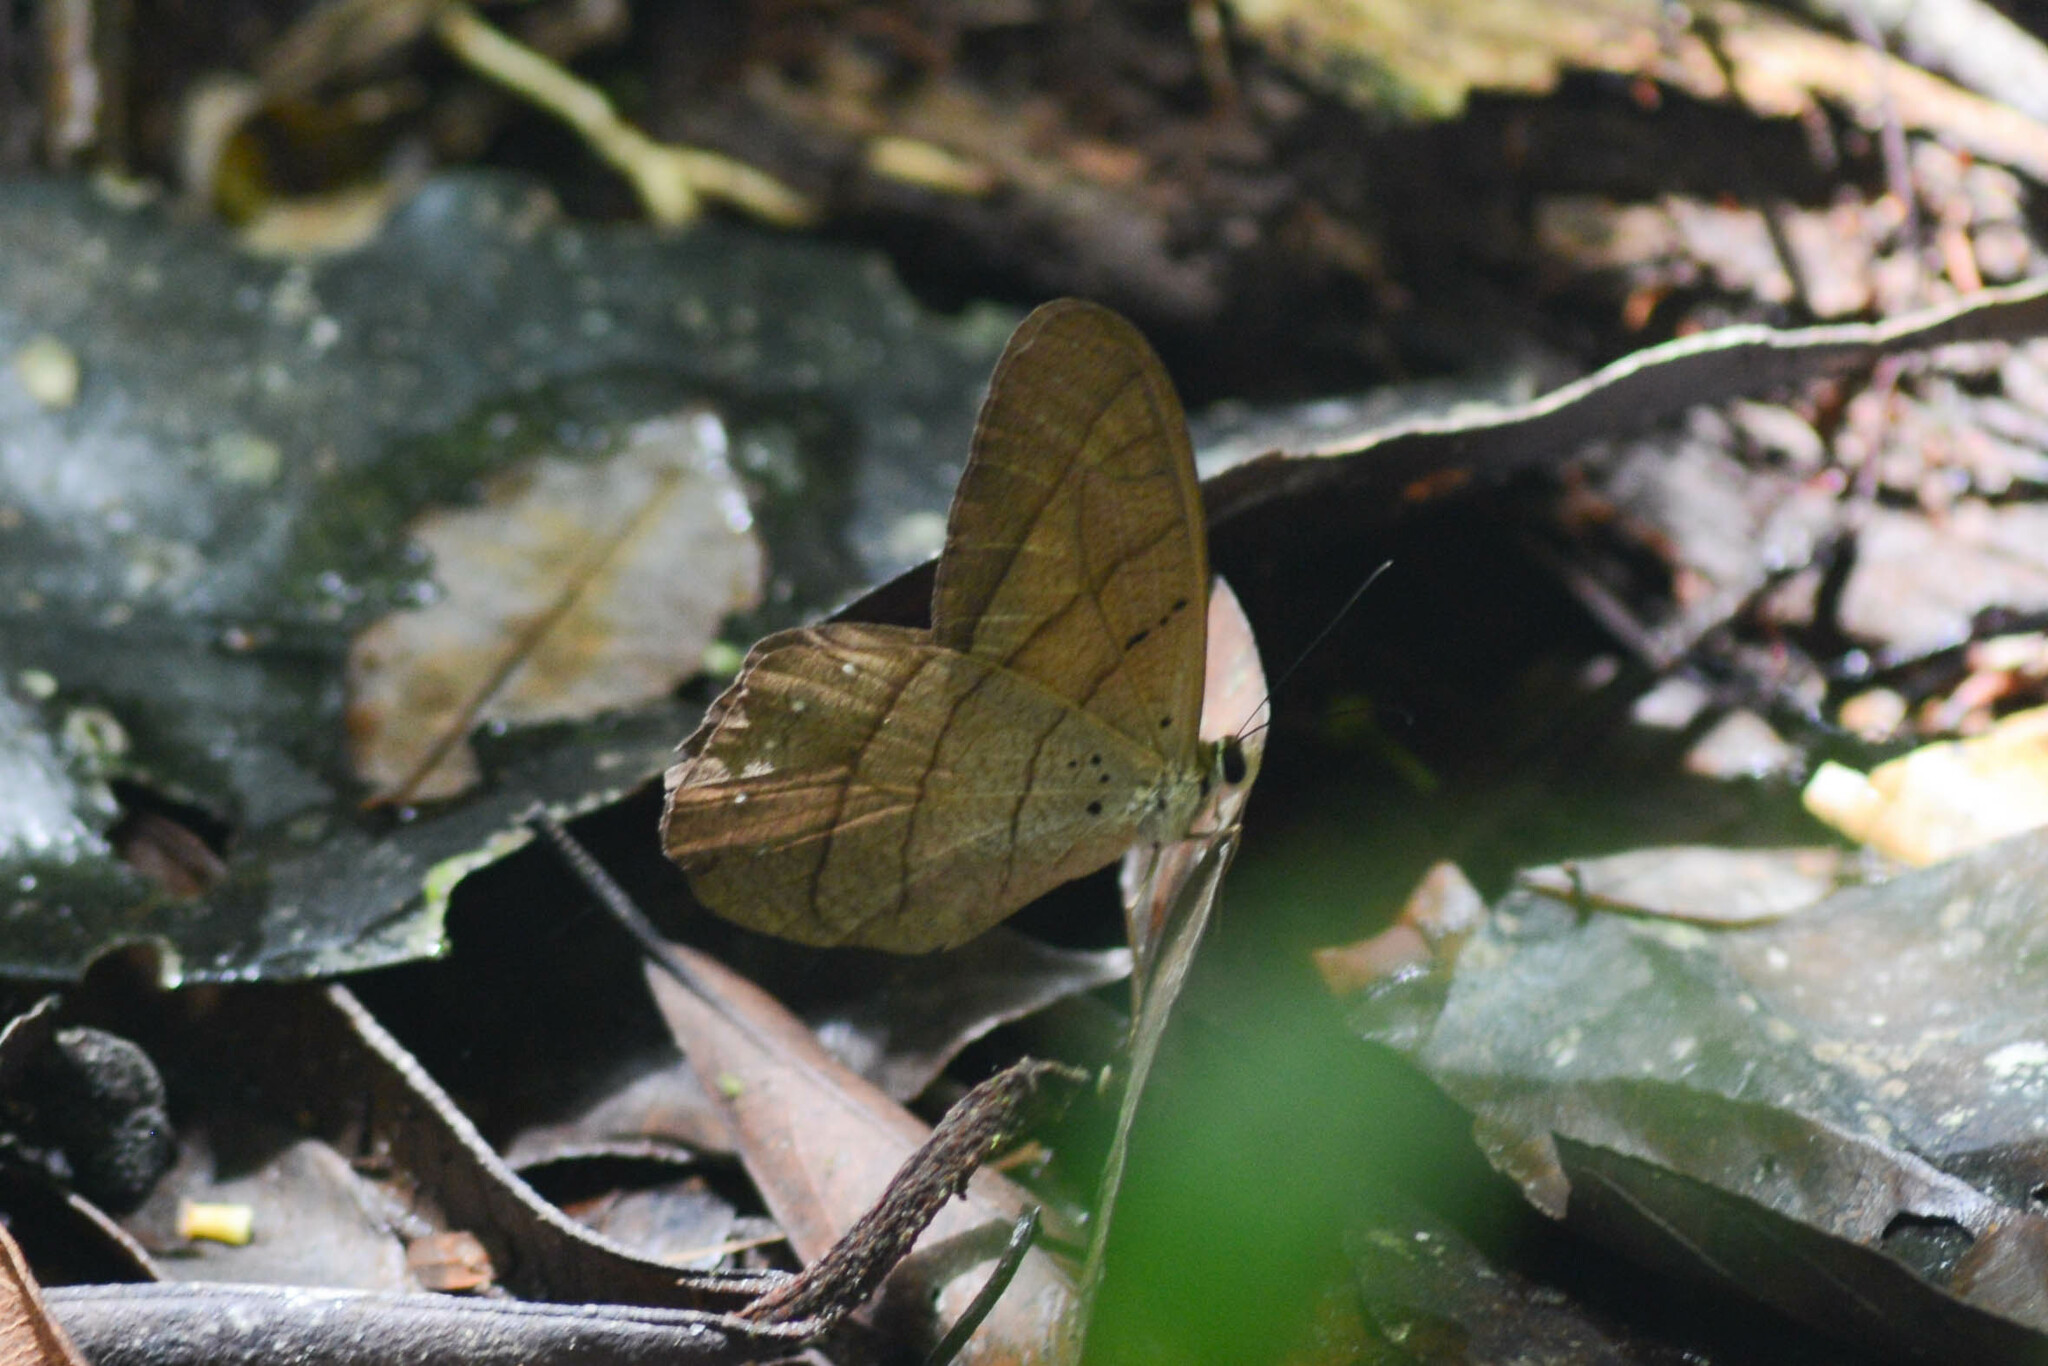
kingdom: Animalia
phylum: Arthropoda
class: Insecta
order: Lepidoptera
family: Nymphalidae
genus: Pierella
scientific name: Pierella kesselringi
